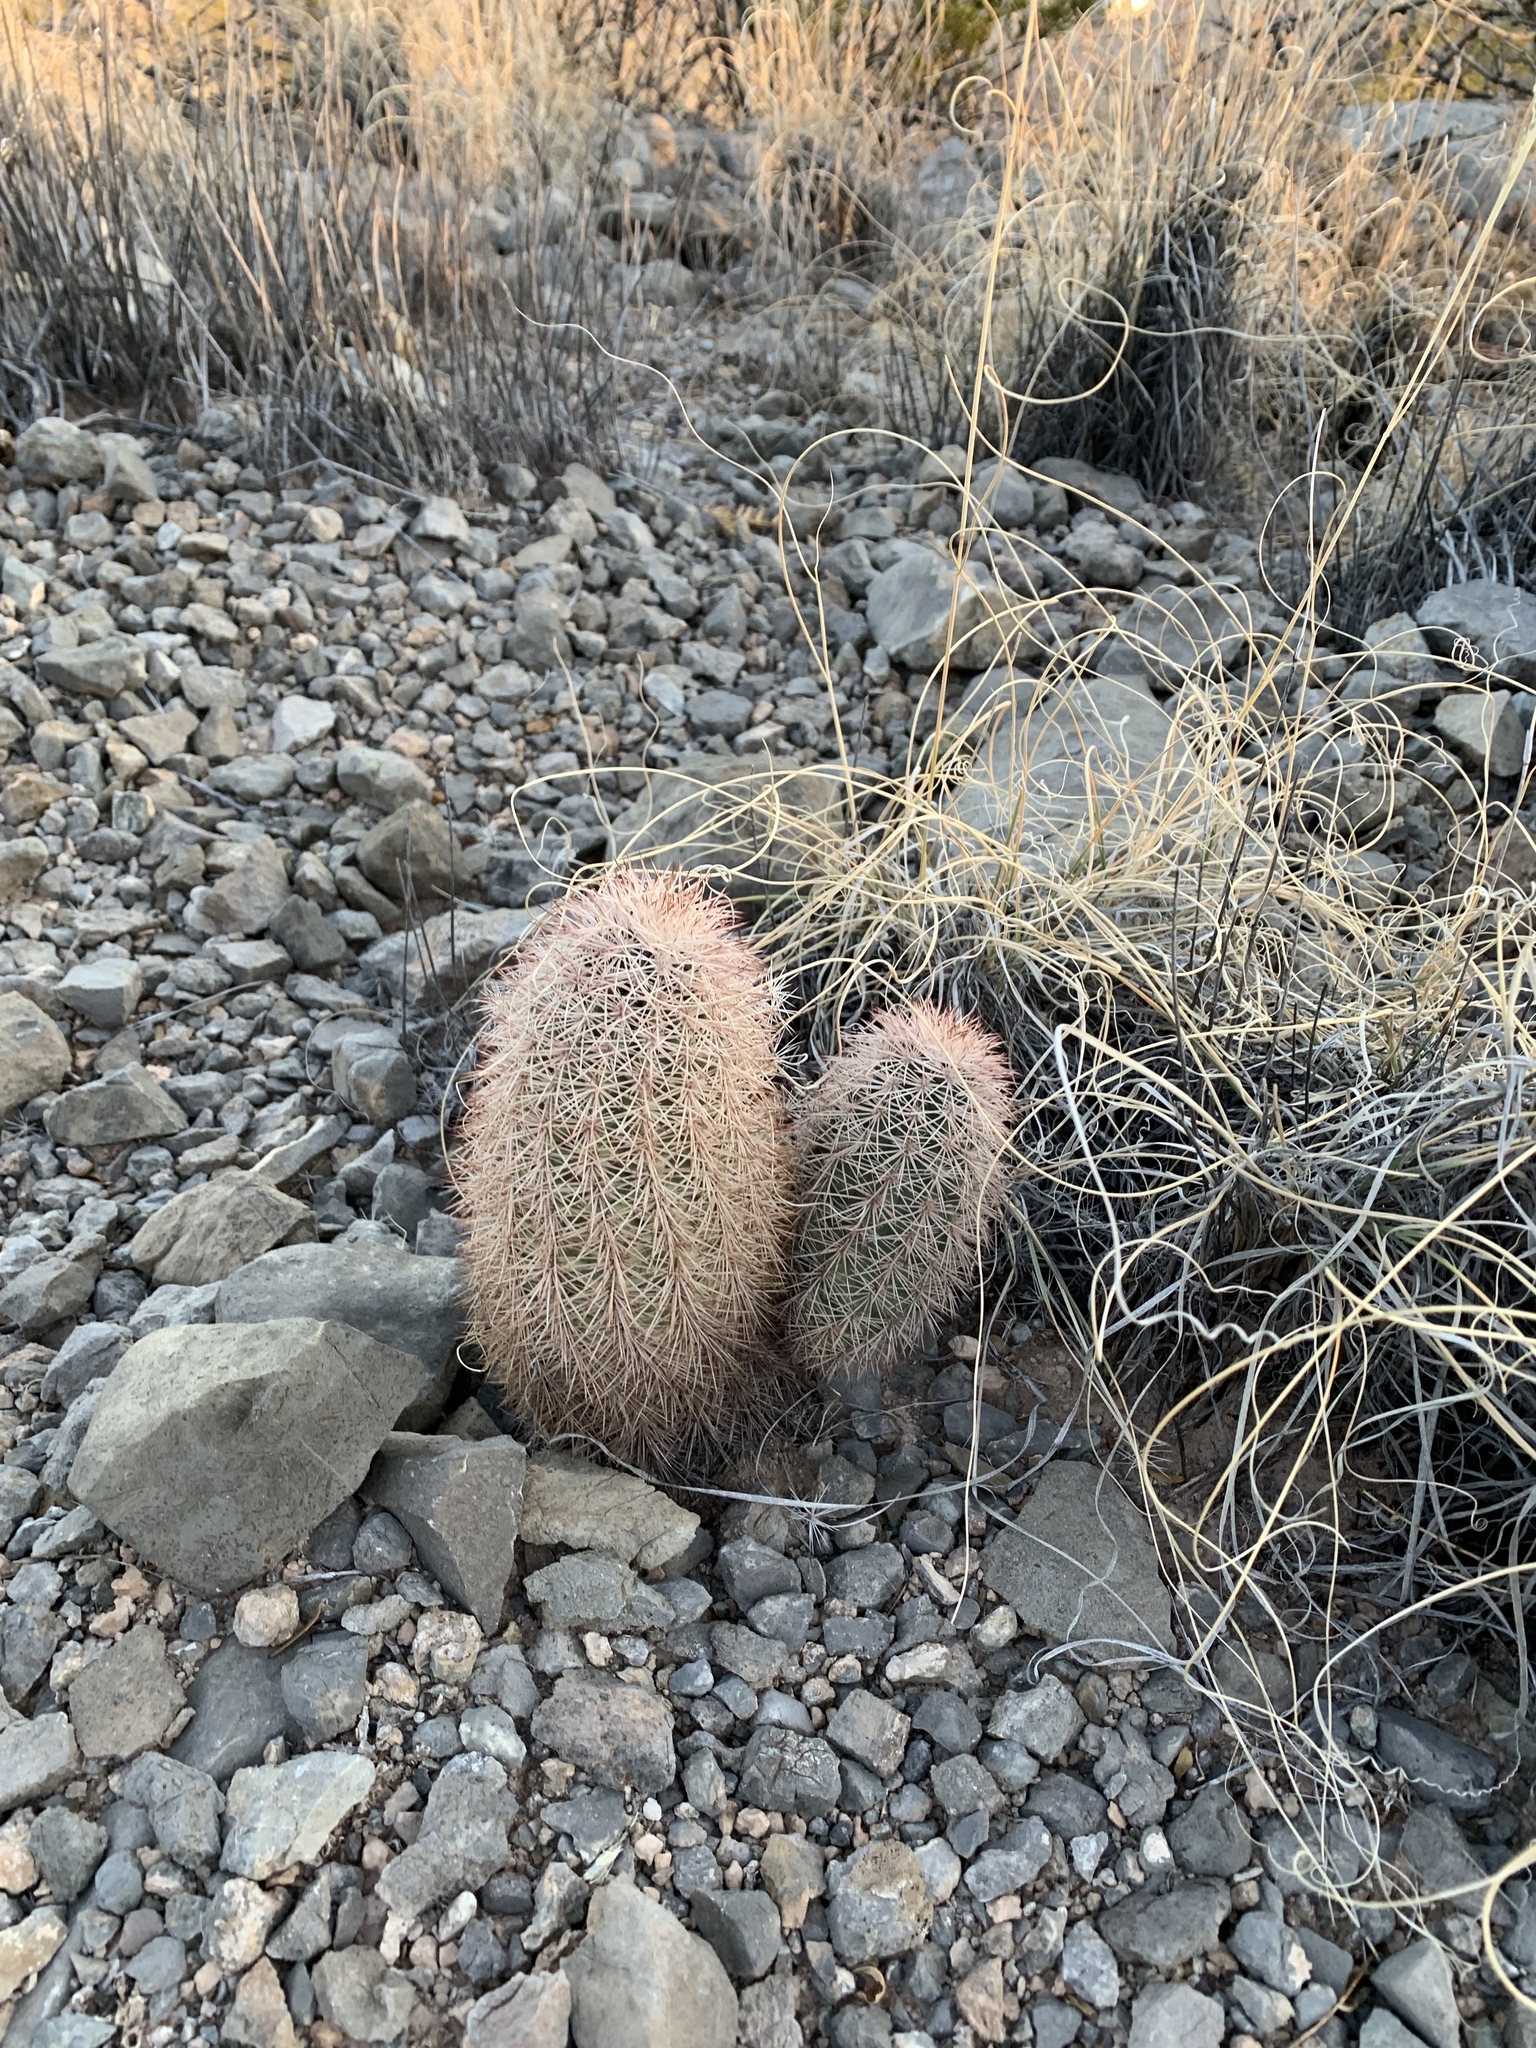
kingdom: Plantae
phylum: Tracheophyta
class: Magnoliopsida
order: Caryophyllales
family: Cactaceae
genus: Echinocereus
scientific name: Echinocereus dasyacanthus
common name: Spiny hedgehog cactus
